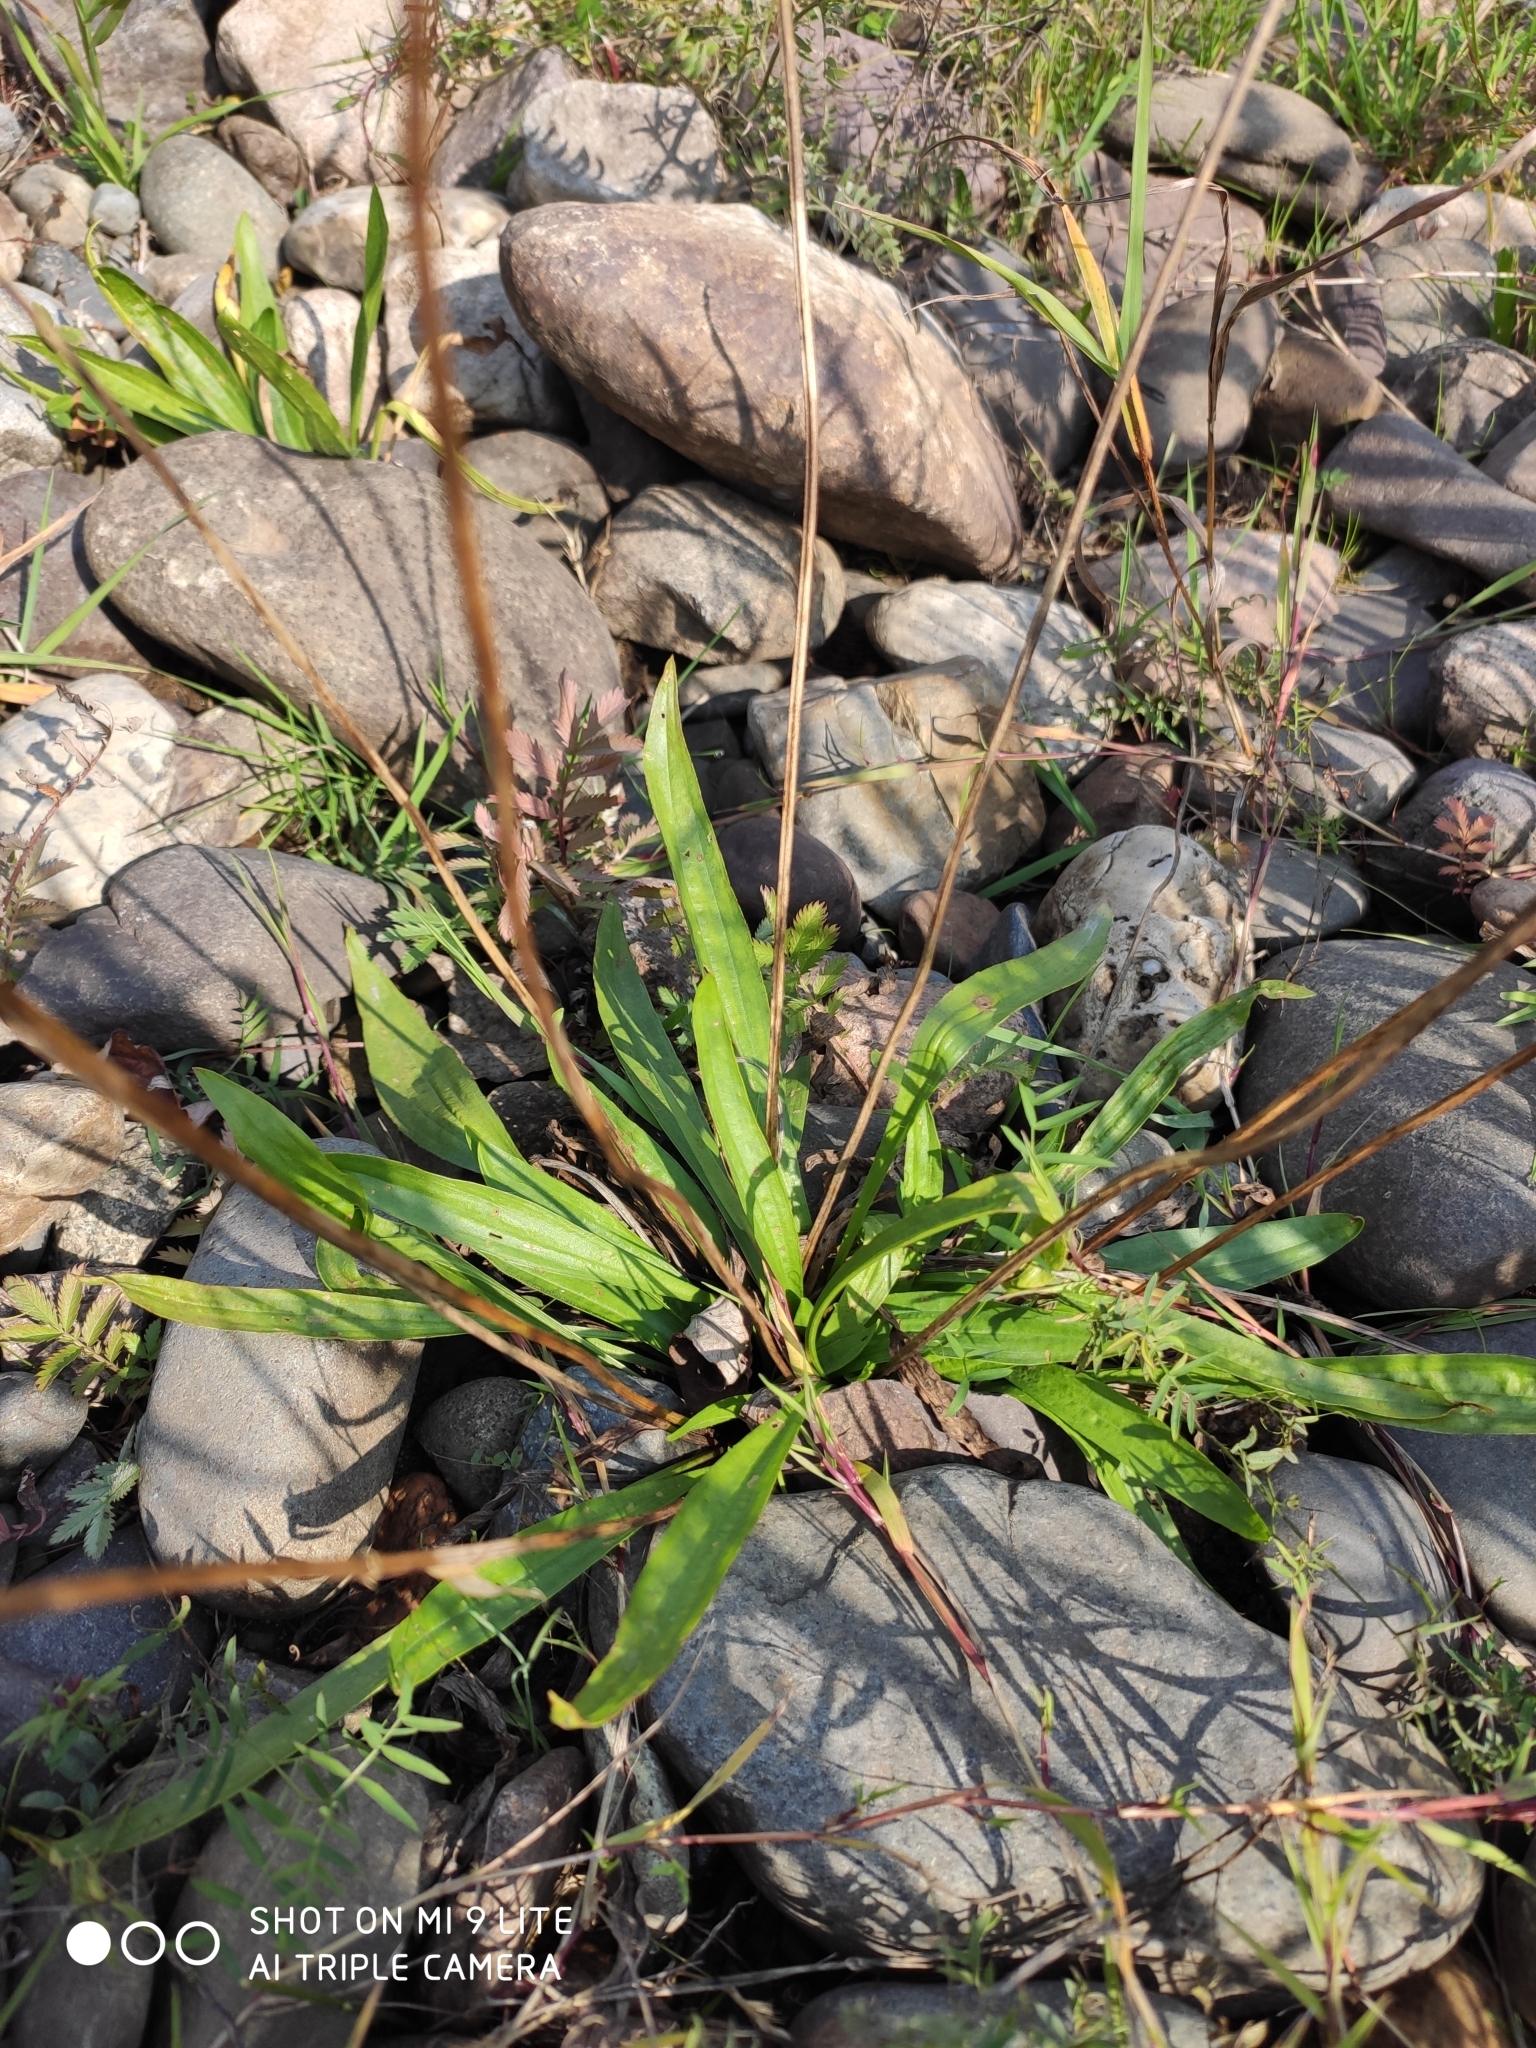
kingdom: Plantae
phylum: Tracheophyta
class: Magnoliopsida
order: Lamiales
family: Plantaginaceae
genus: Plantago
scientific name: Plantago lanceolata
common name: Ribwort plantain
